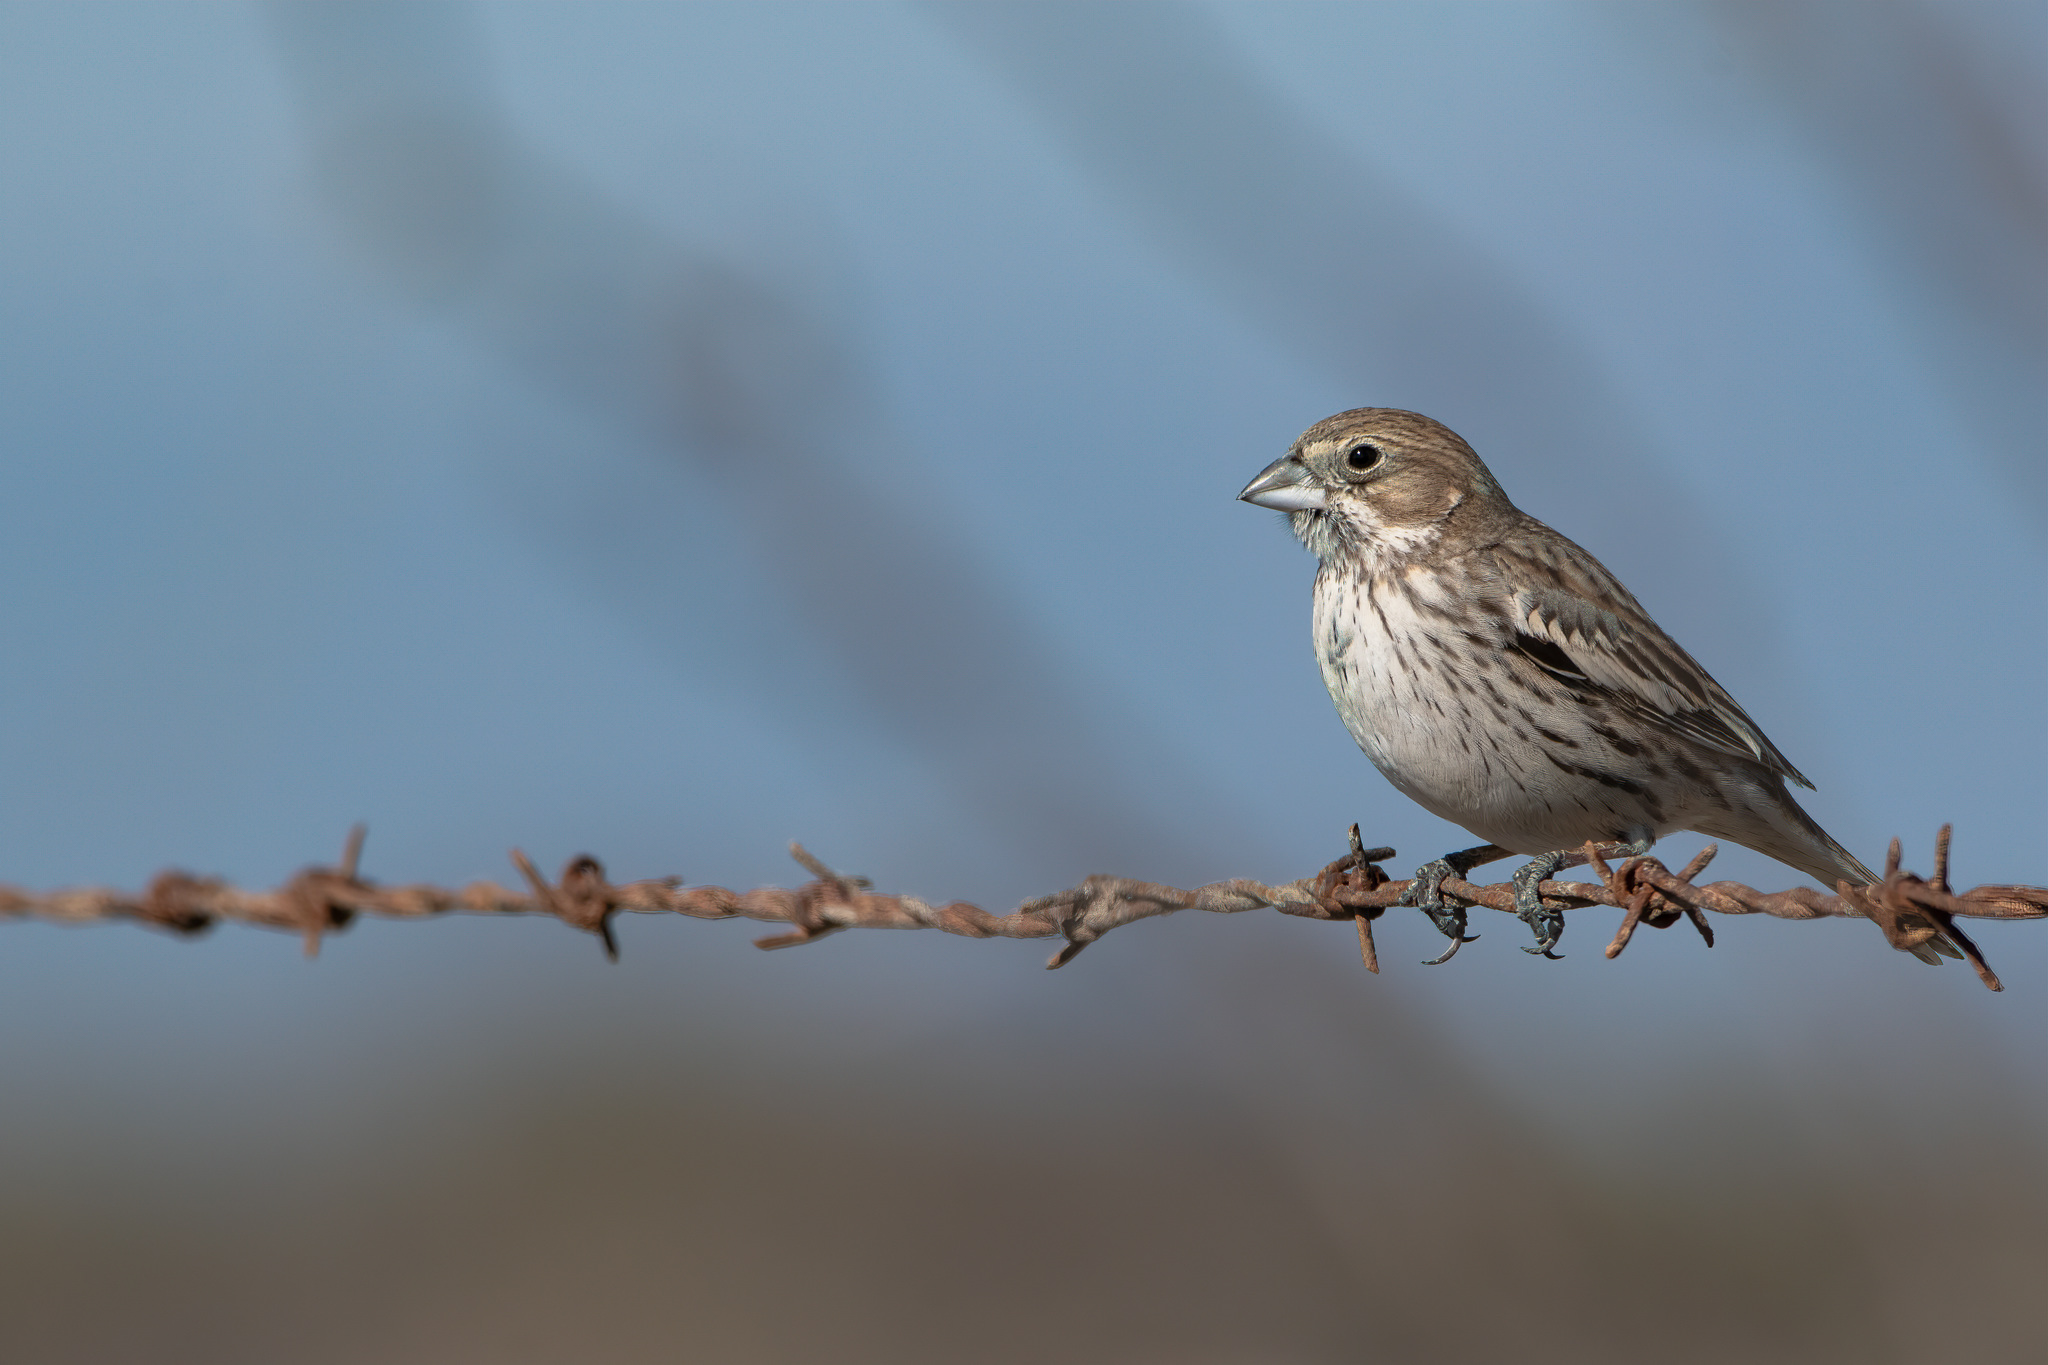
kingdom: Animalia
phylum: Chordata
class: Aves
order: Passeriformes
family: Passerellidae
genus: Calamospiza
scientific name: Calamospiza melanocorys
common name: Lark bunting
